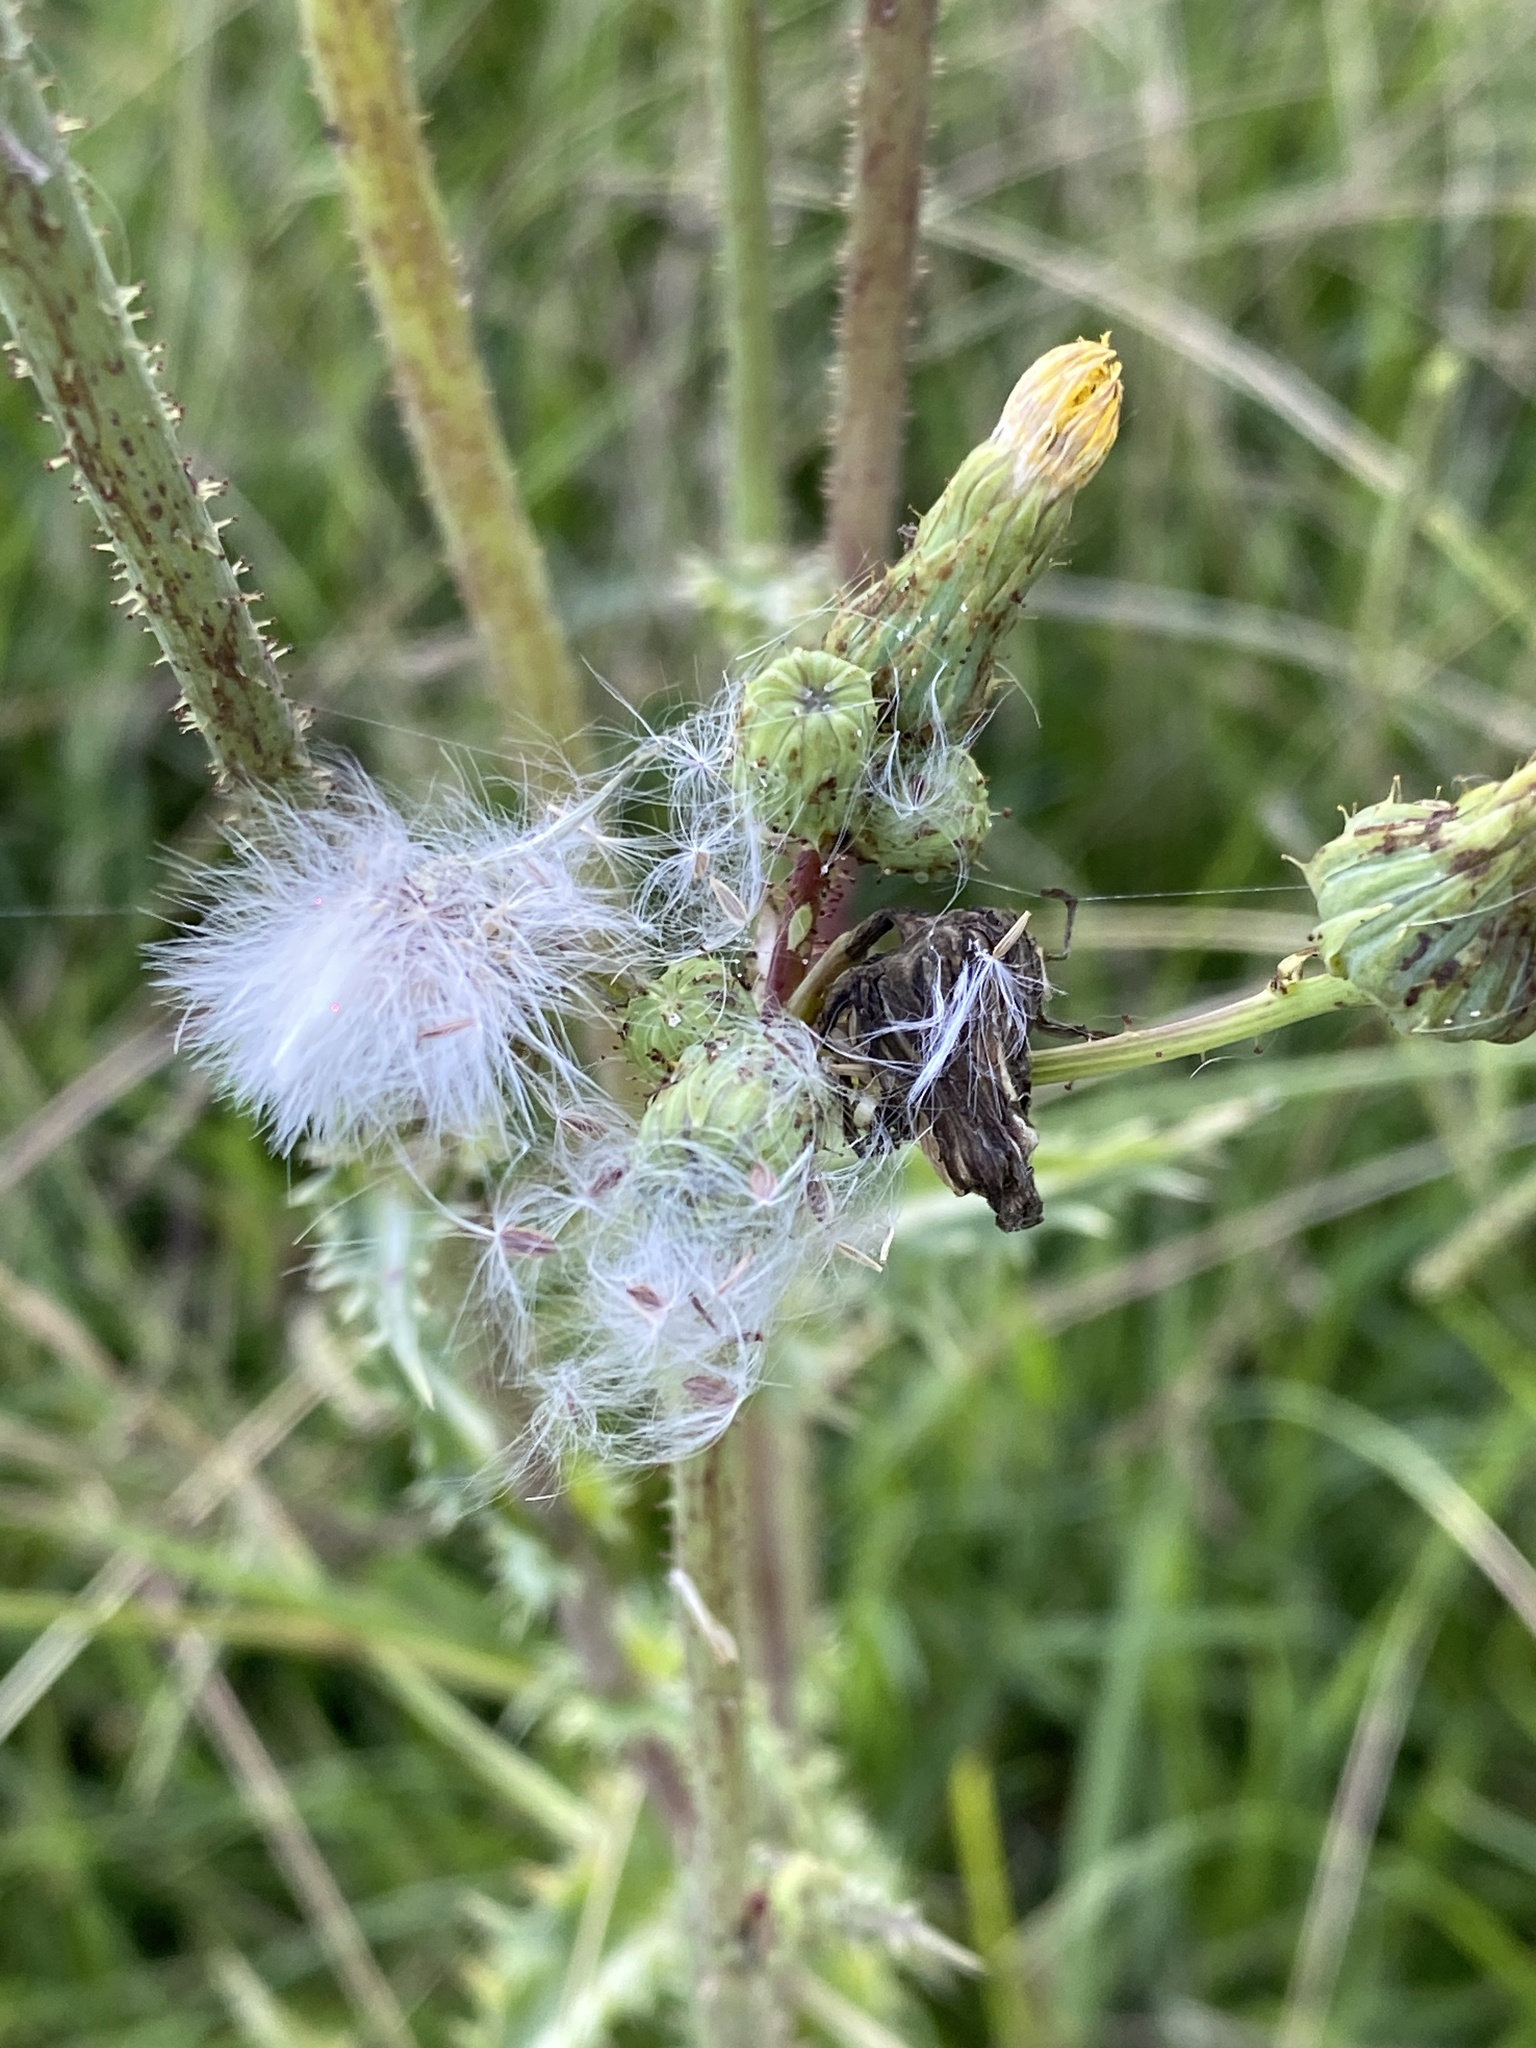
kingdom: Plantae
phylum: Tracheophyta
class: Magnoliopsida
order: Asterales
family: Asteraceae
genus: Sonchus
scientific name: Sonchus asper
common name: Prickly sow-thistle
